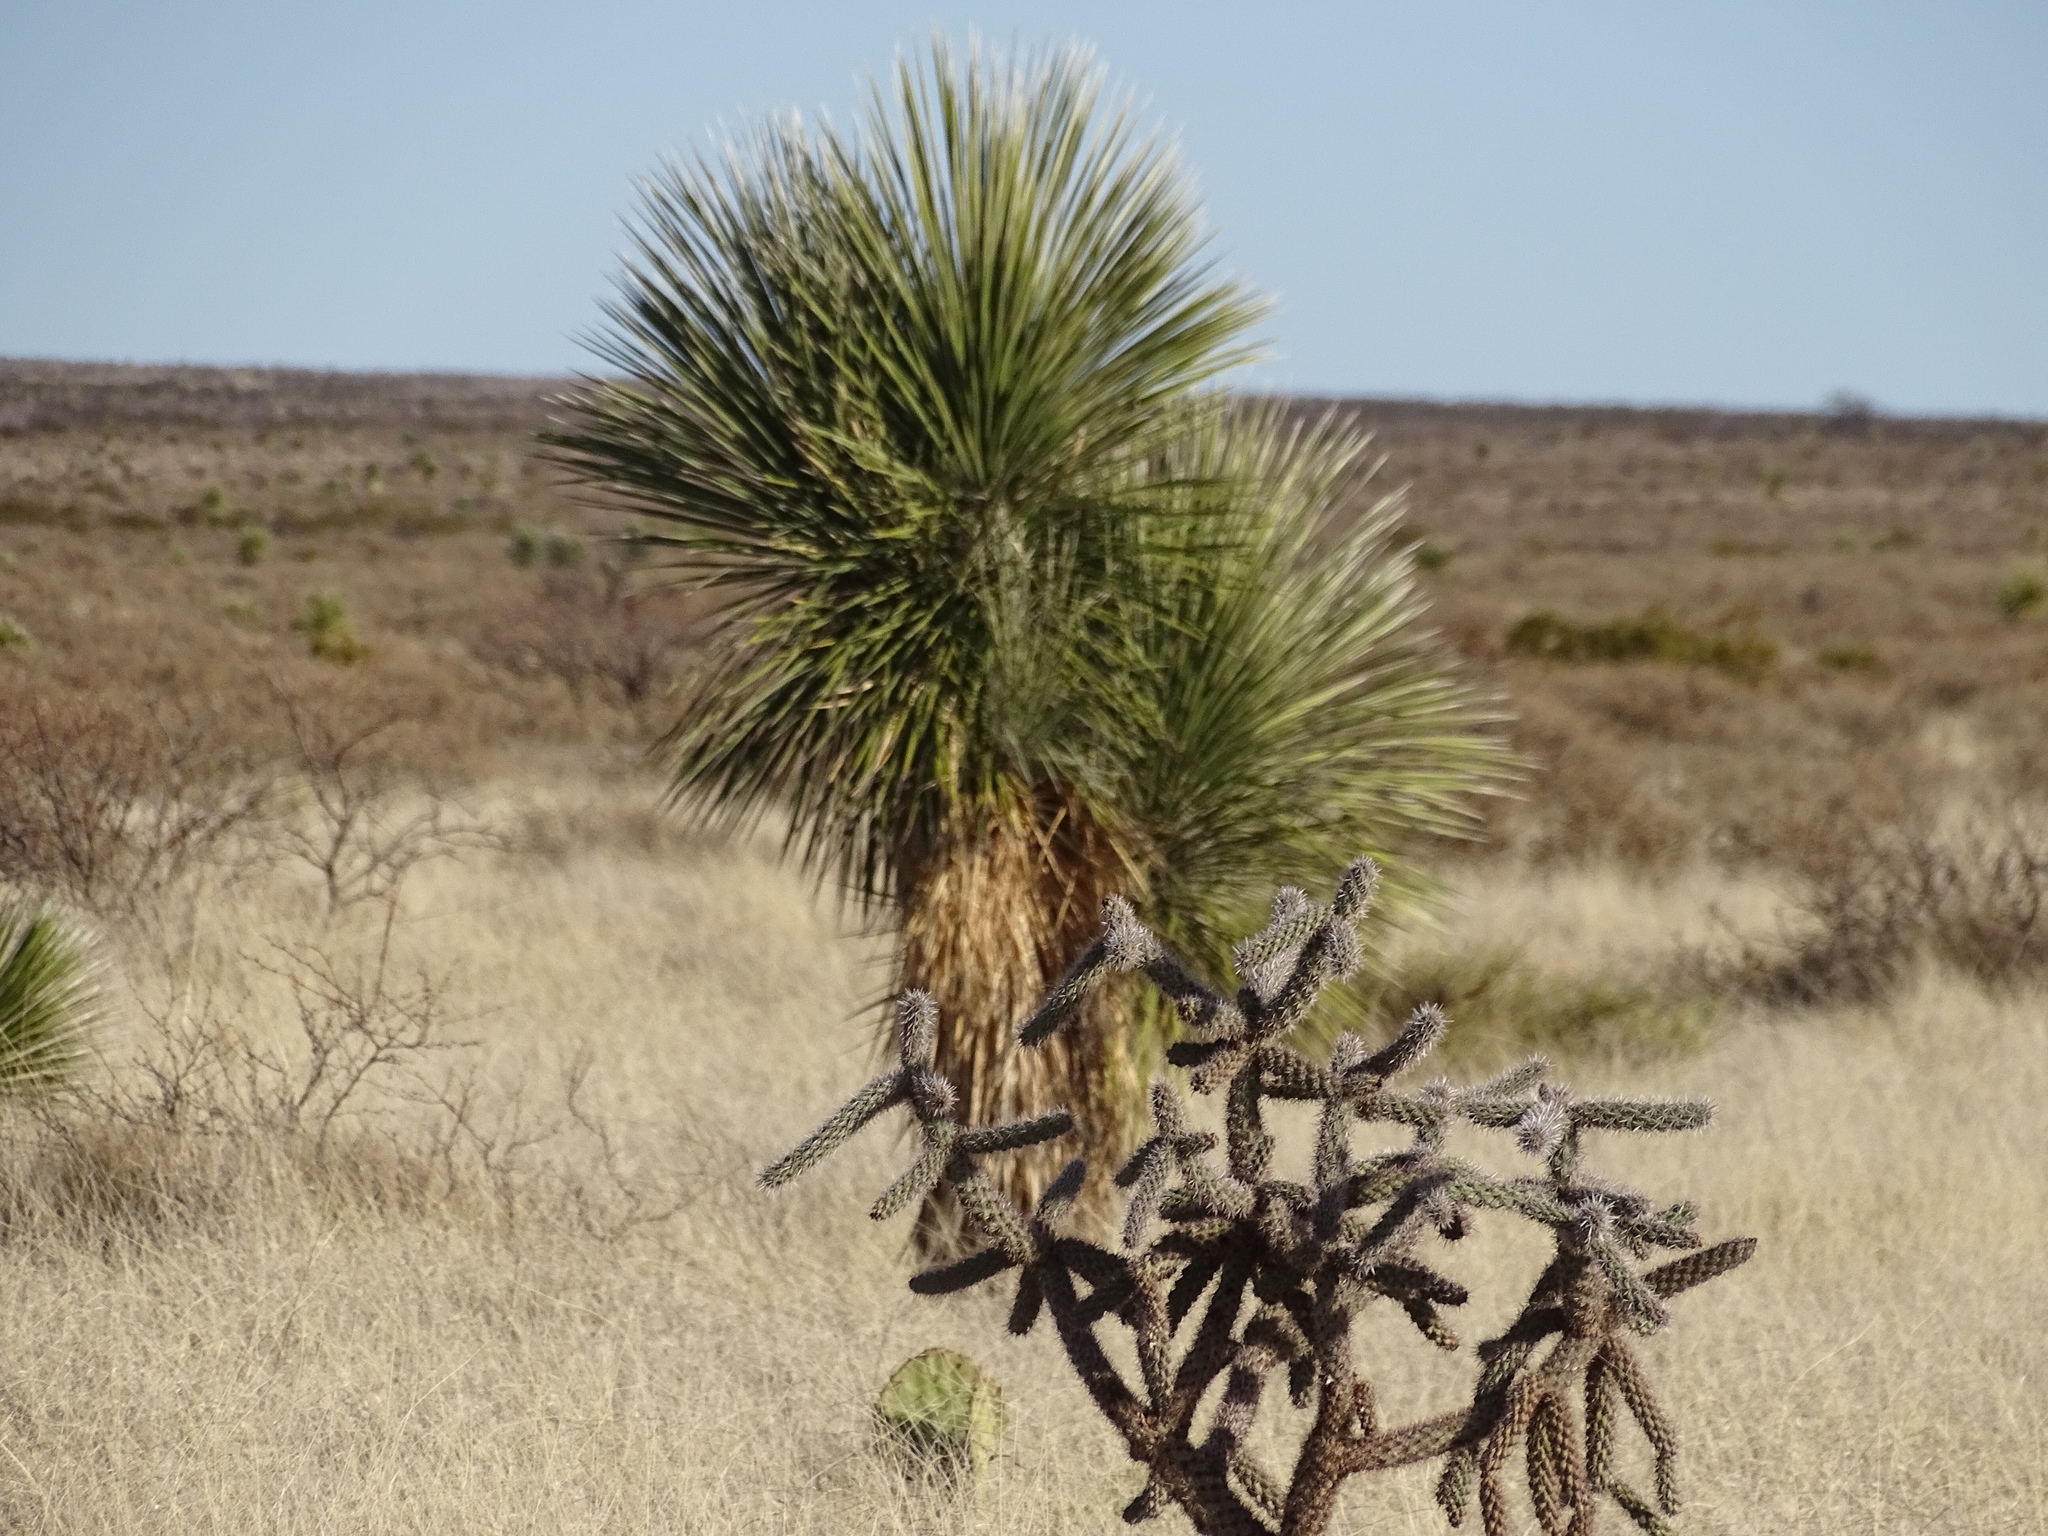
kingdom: Plantae
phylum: Tracheophyta
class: Liliopsida
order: Asparagales
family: Asparagaceae
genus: Yucca
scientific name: Yucca elata
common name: Palmella
